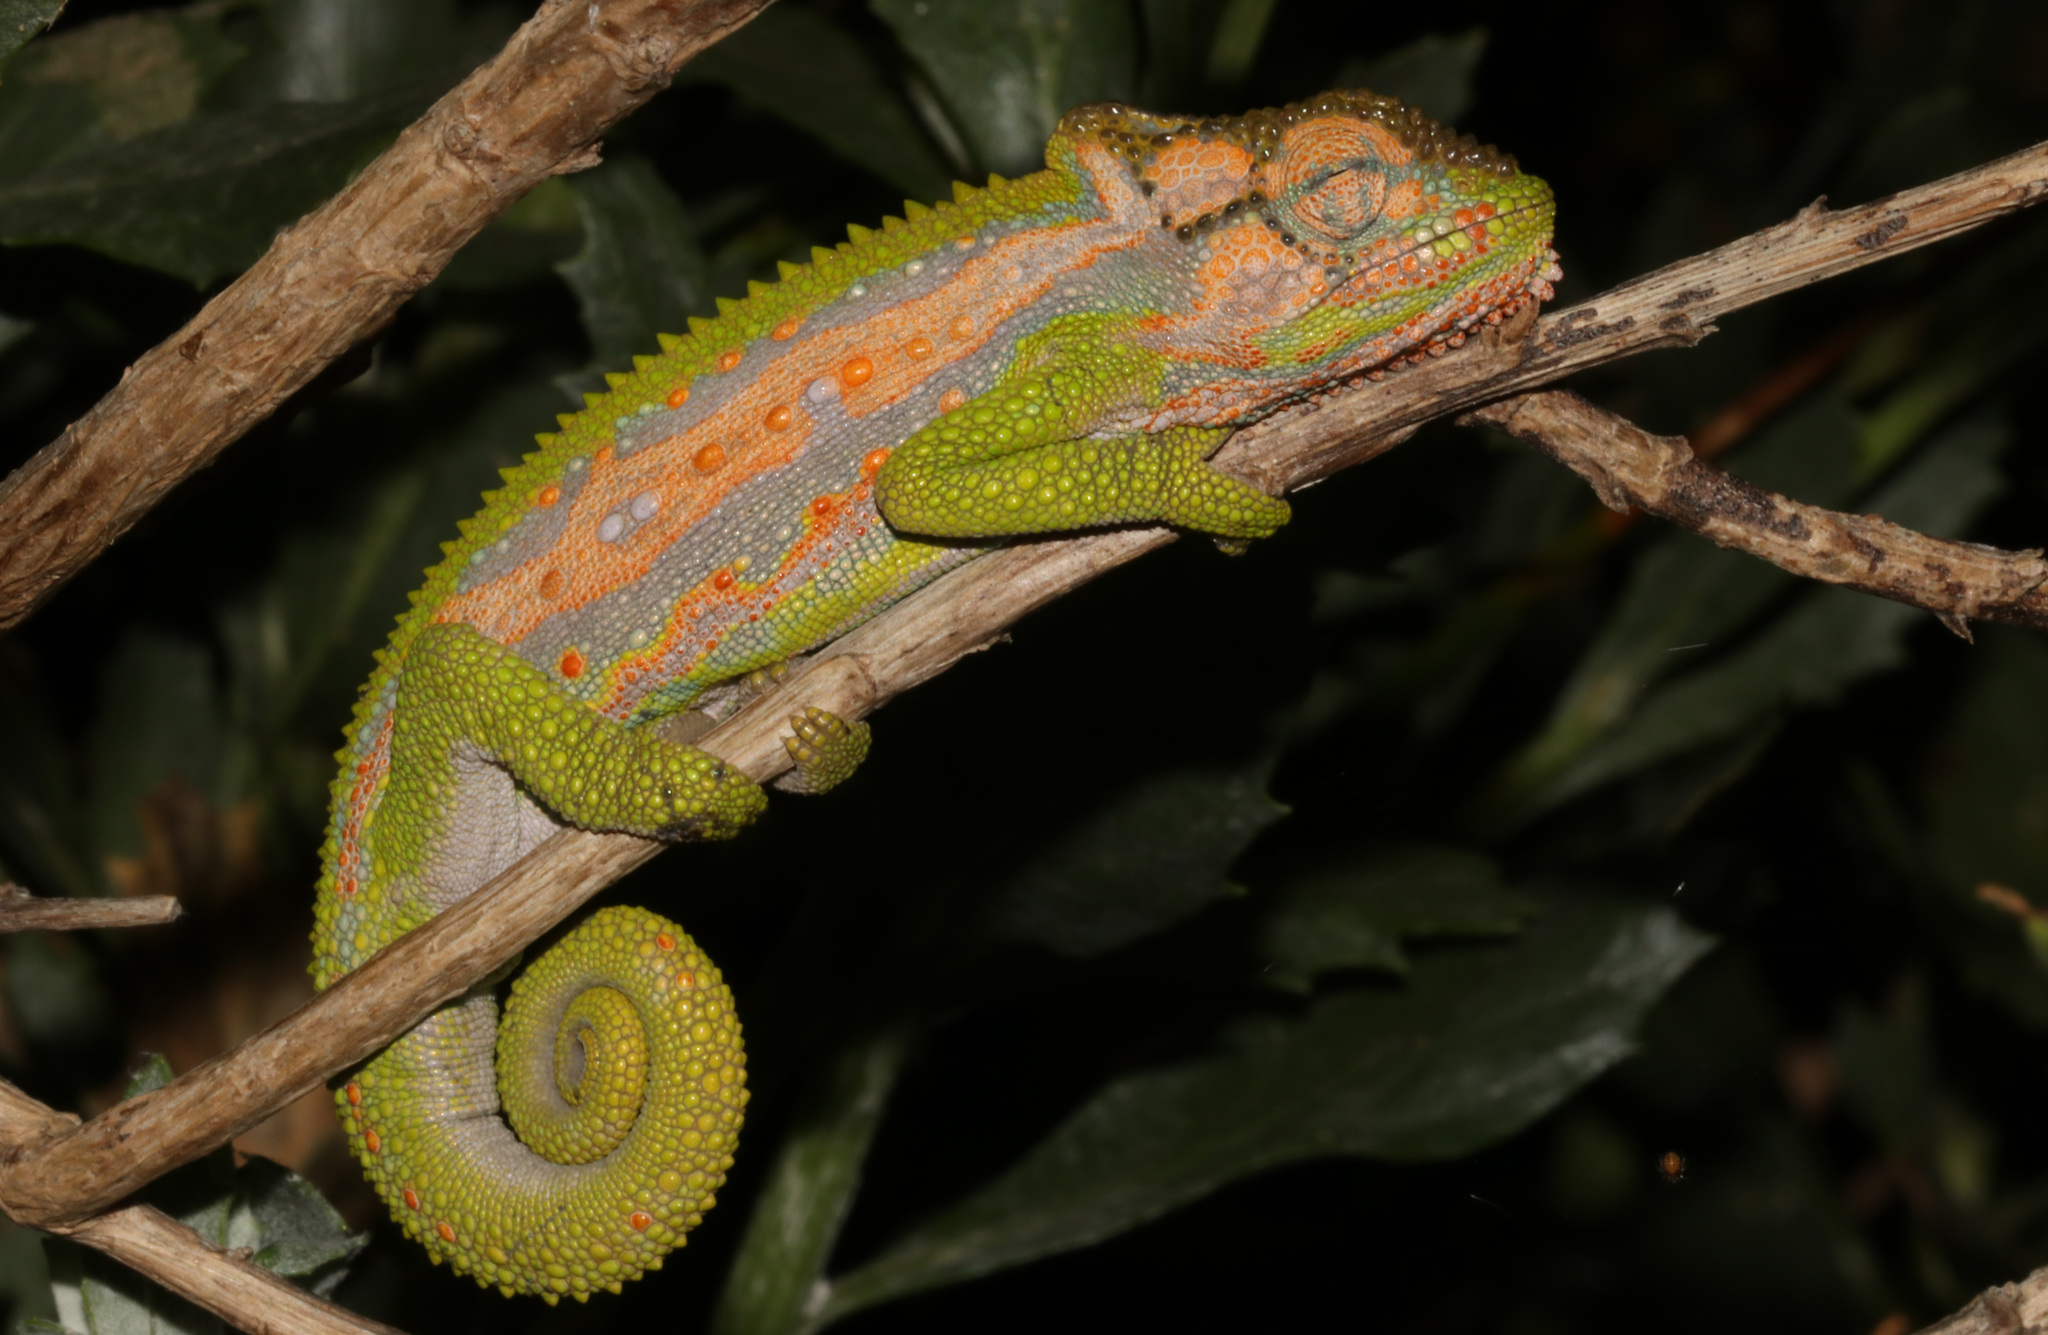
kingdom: Animalia
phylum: Chordata
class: Squamata
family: Chamaeleonidae
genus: Bradypodion
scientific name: Bradypodion pumilum
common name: Cape dwarf chameleon
